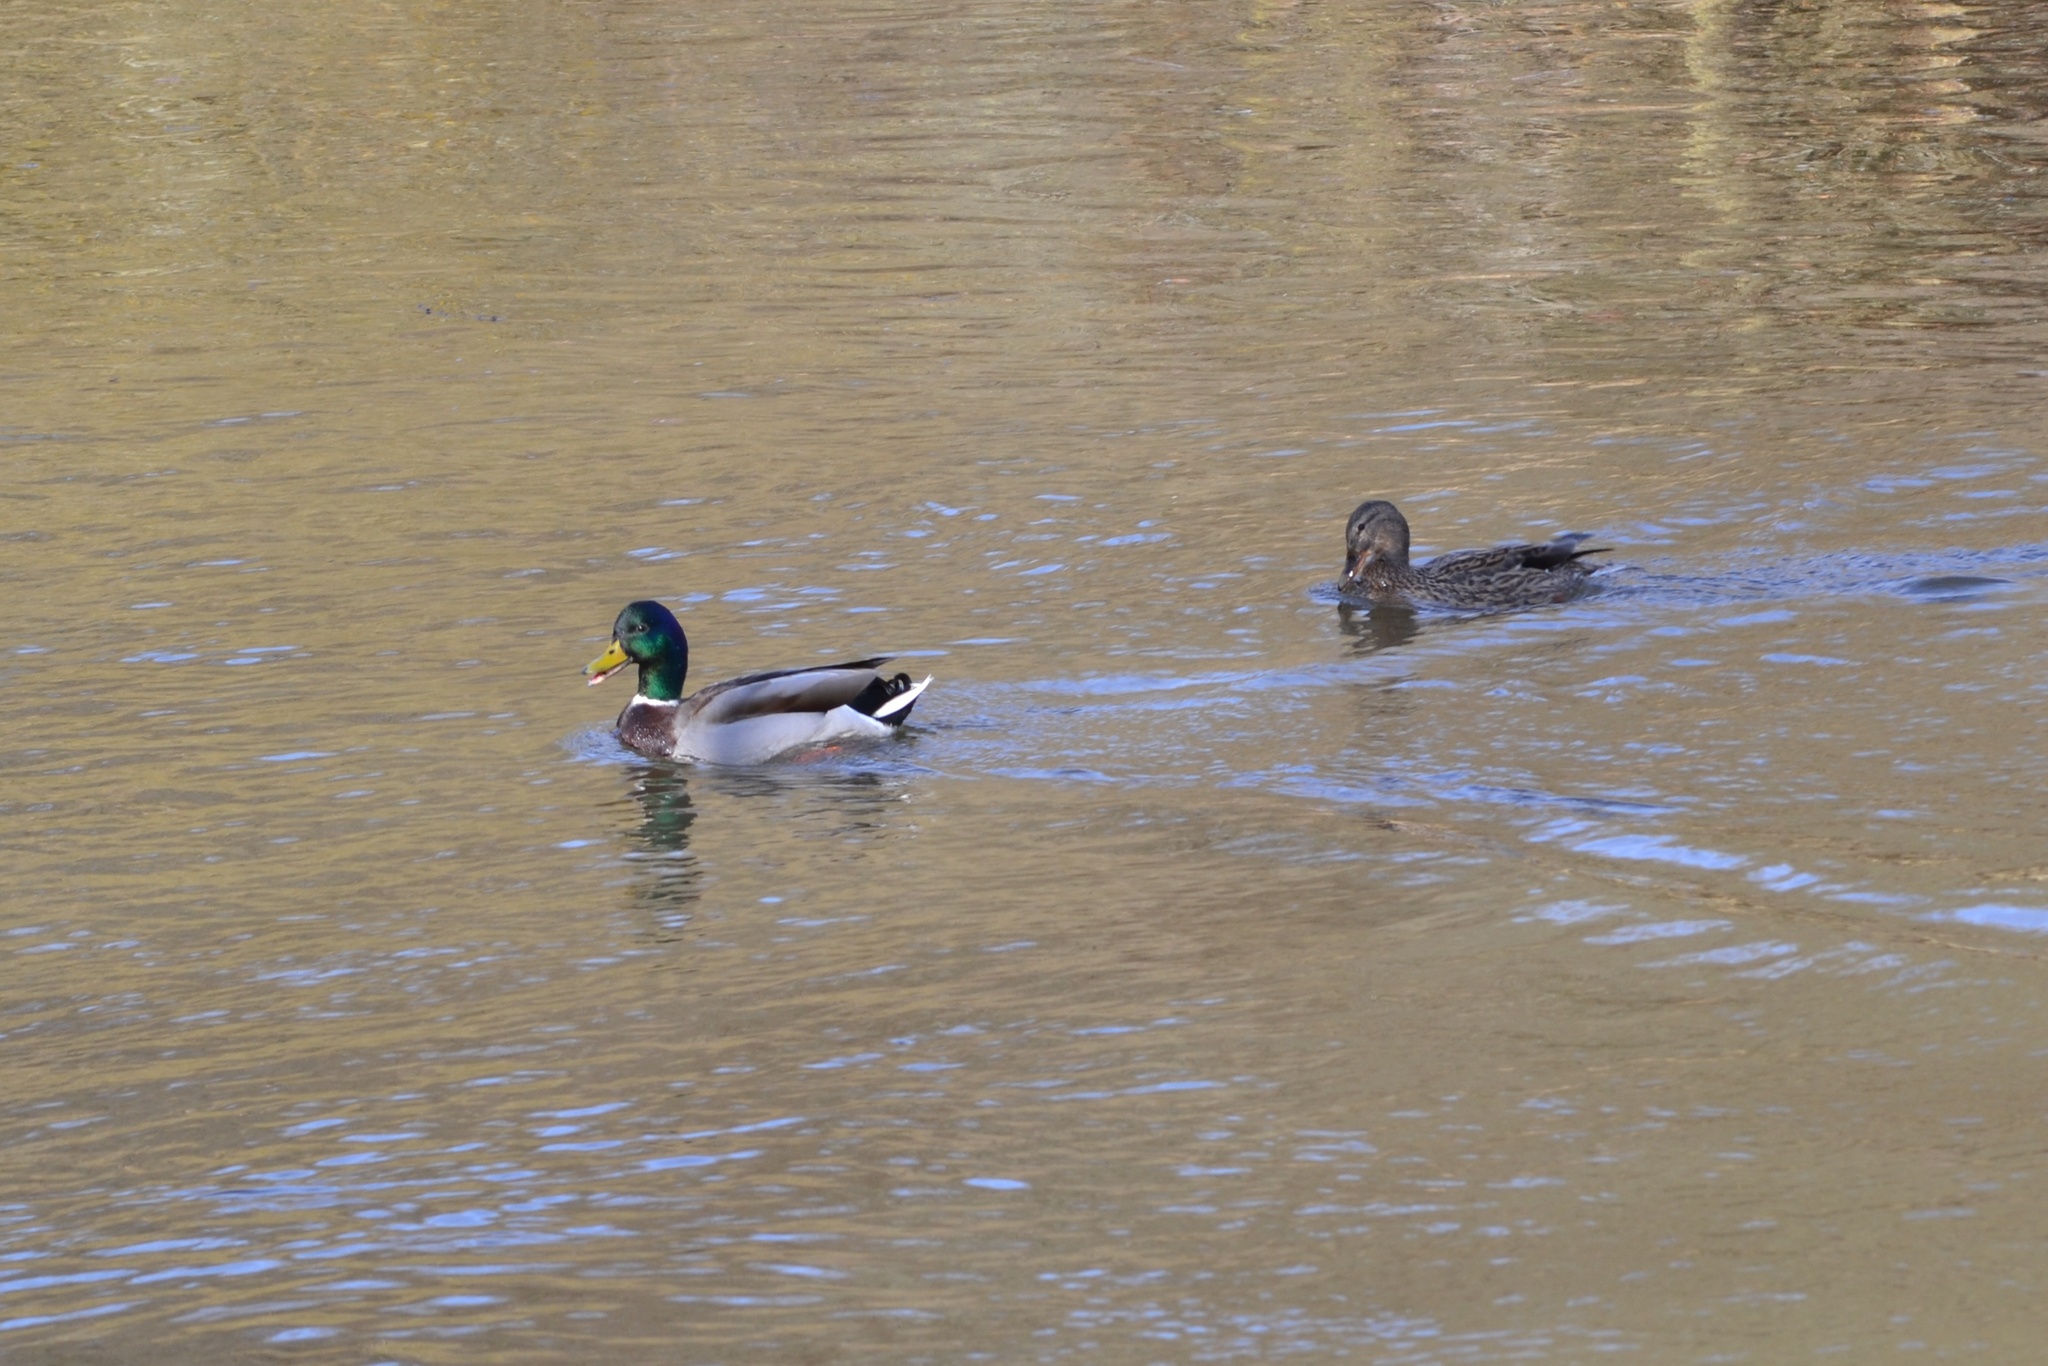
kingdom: Animalia
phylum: Chordata
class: Aves
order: Anseriformes
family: Anatidae
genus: Anas
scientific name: Anas platyrhynchos
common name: Mallard
